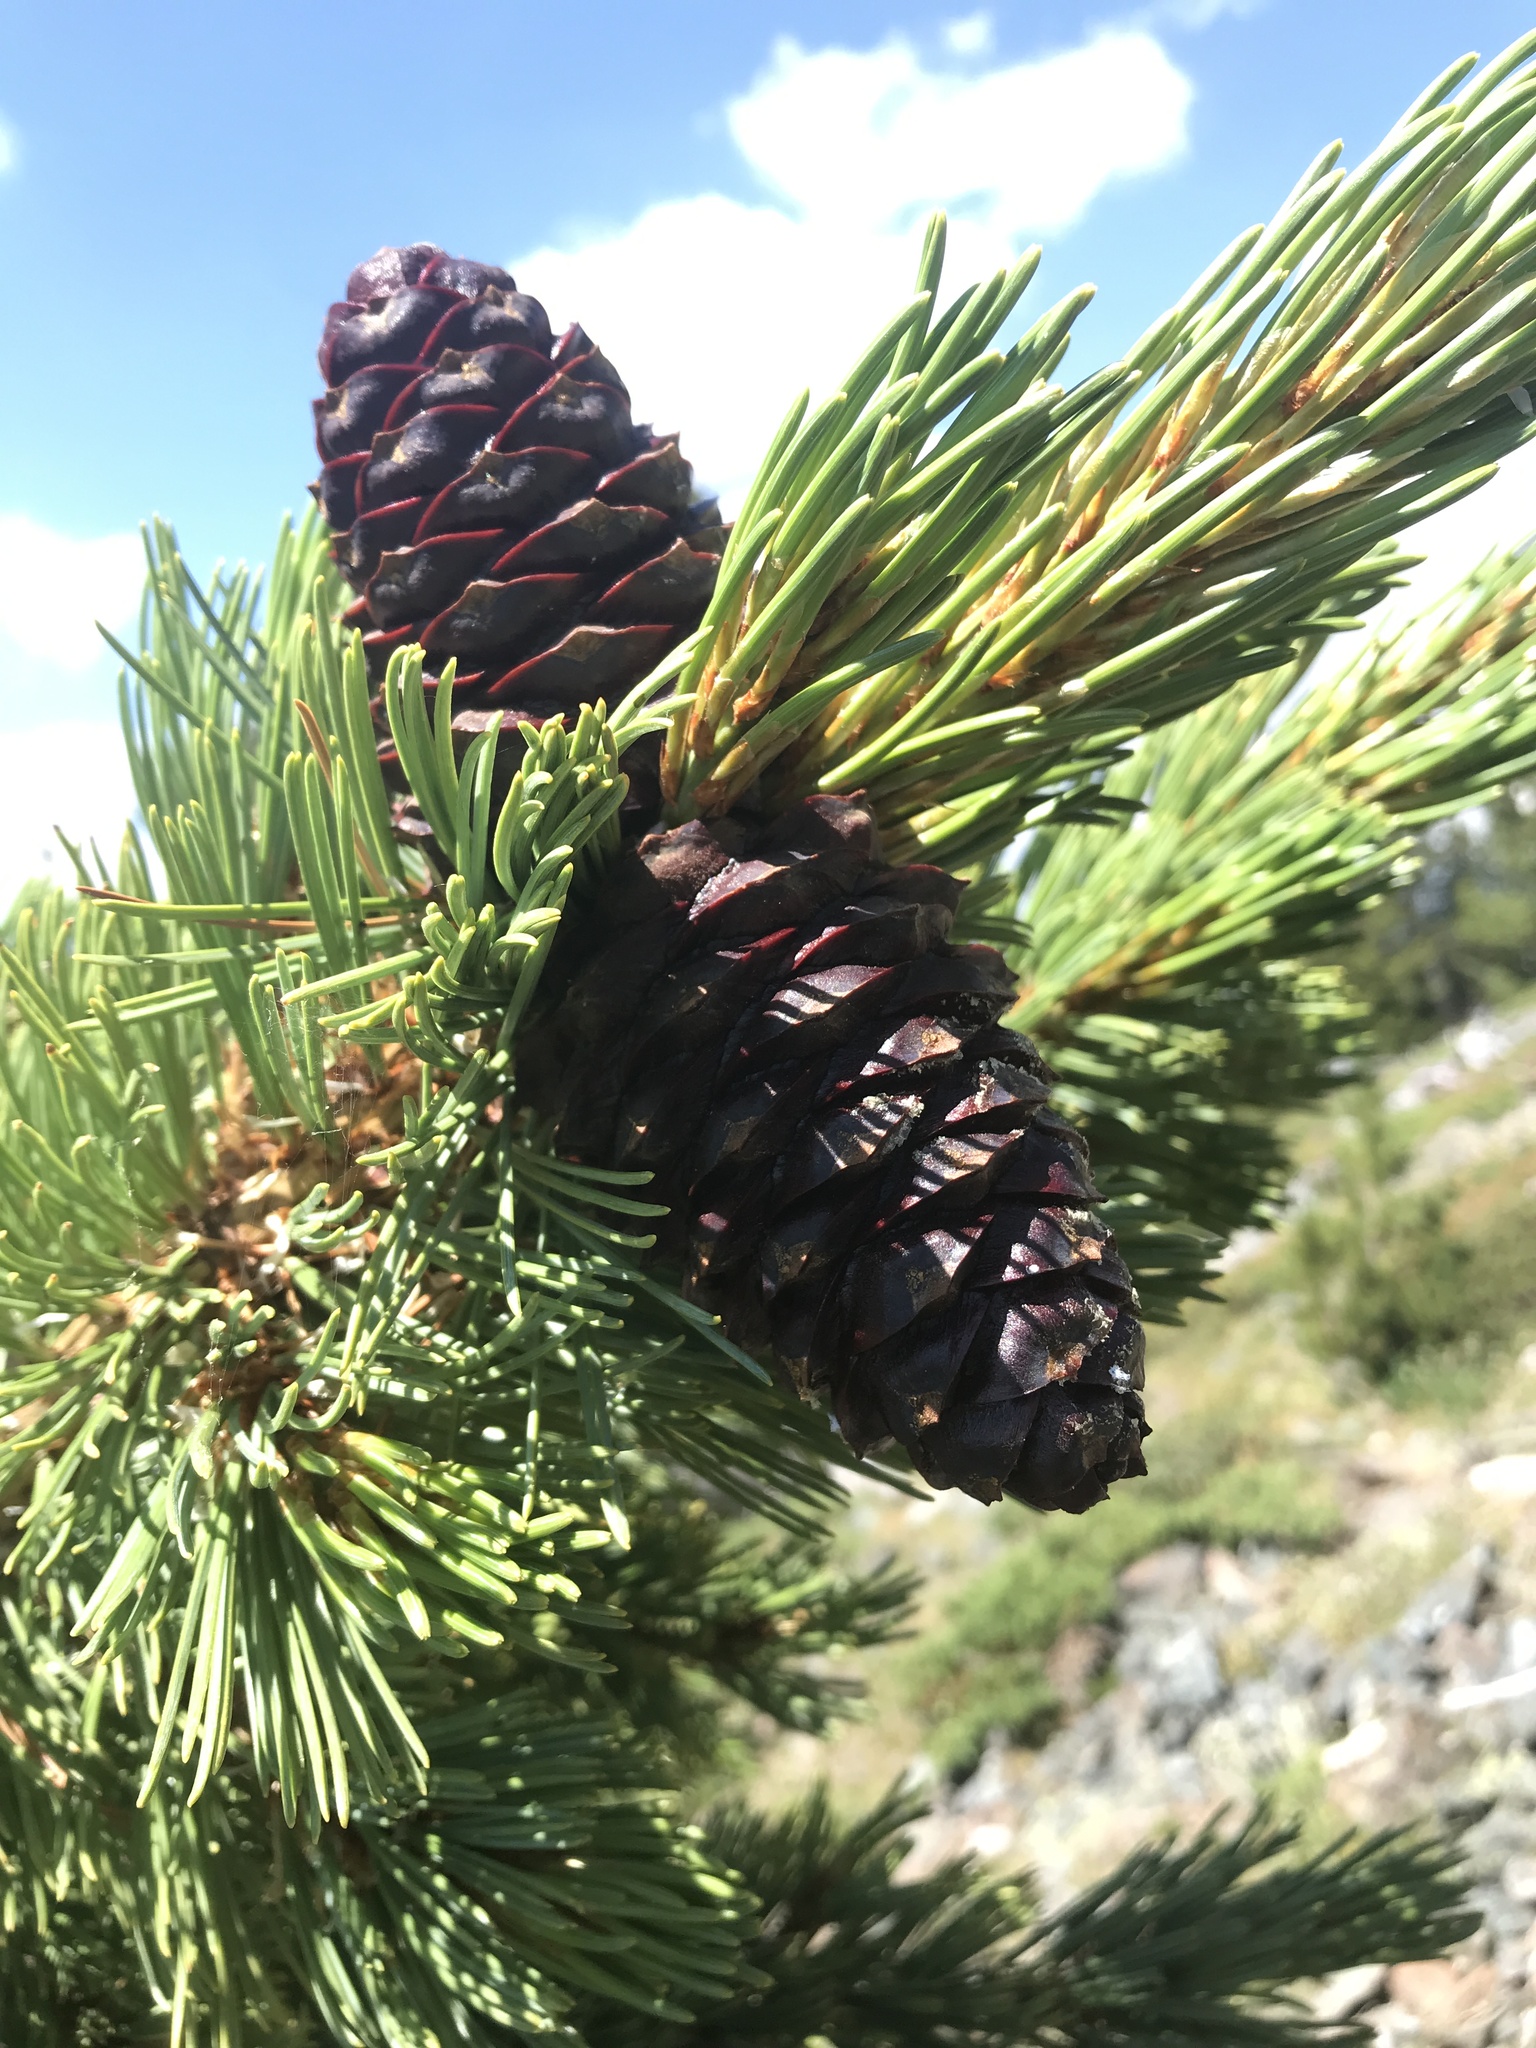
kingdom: Plantae
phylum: Tracheophyta
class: Pinopsida
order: Pinales
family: Pinaceae
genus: Pinus
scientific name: Pinus albicaulis
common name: Whitebark pine
